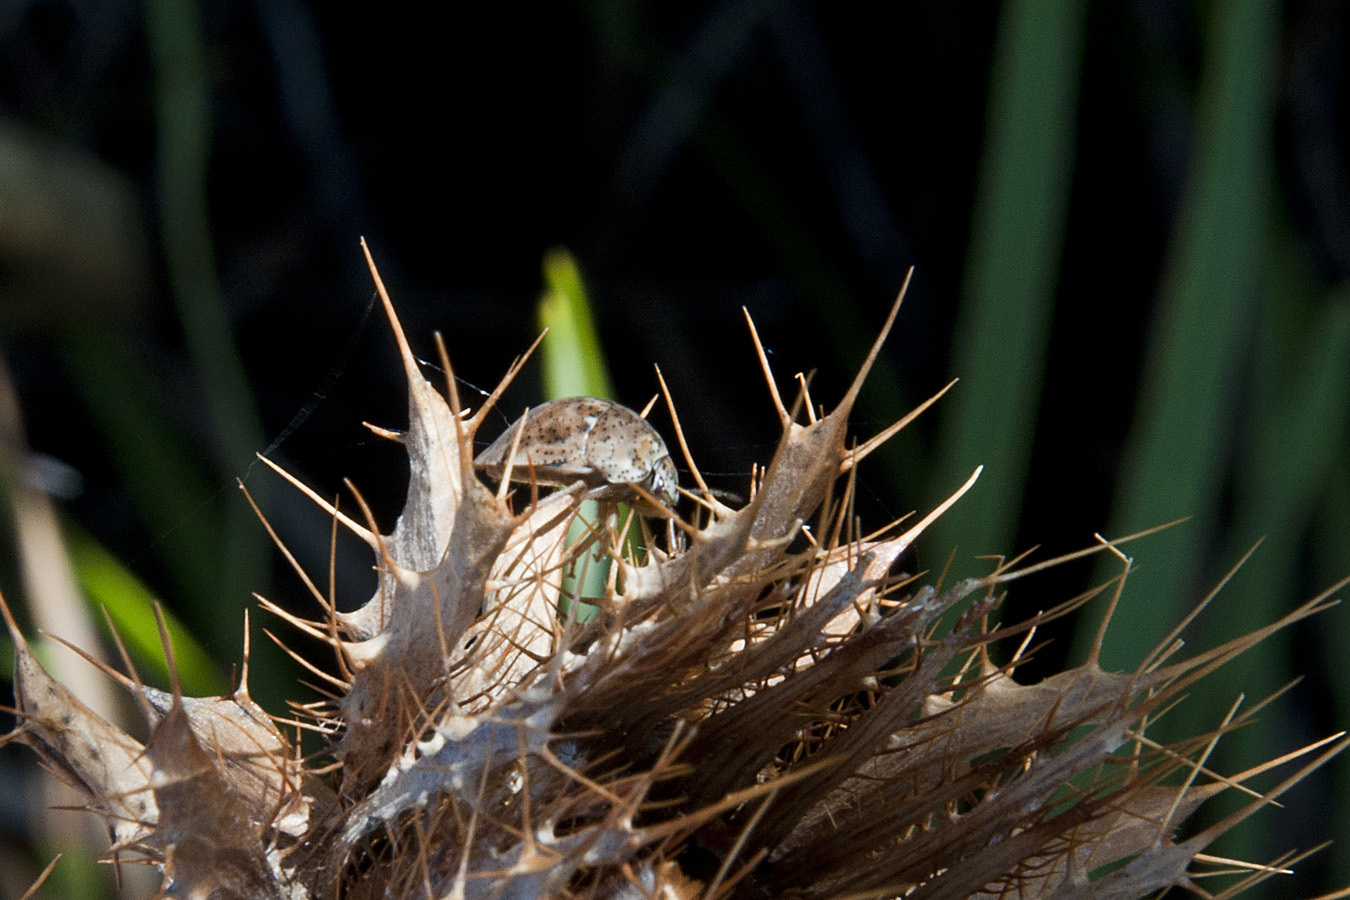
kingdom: Animalia
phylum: Arthropoda
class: Insecta
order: Hemiptera
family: Scutelleridae
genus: Sphaerocoris
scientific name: Sphaerocoris
